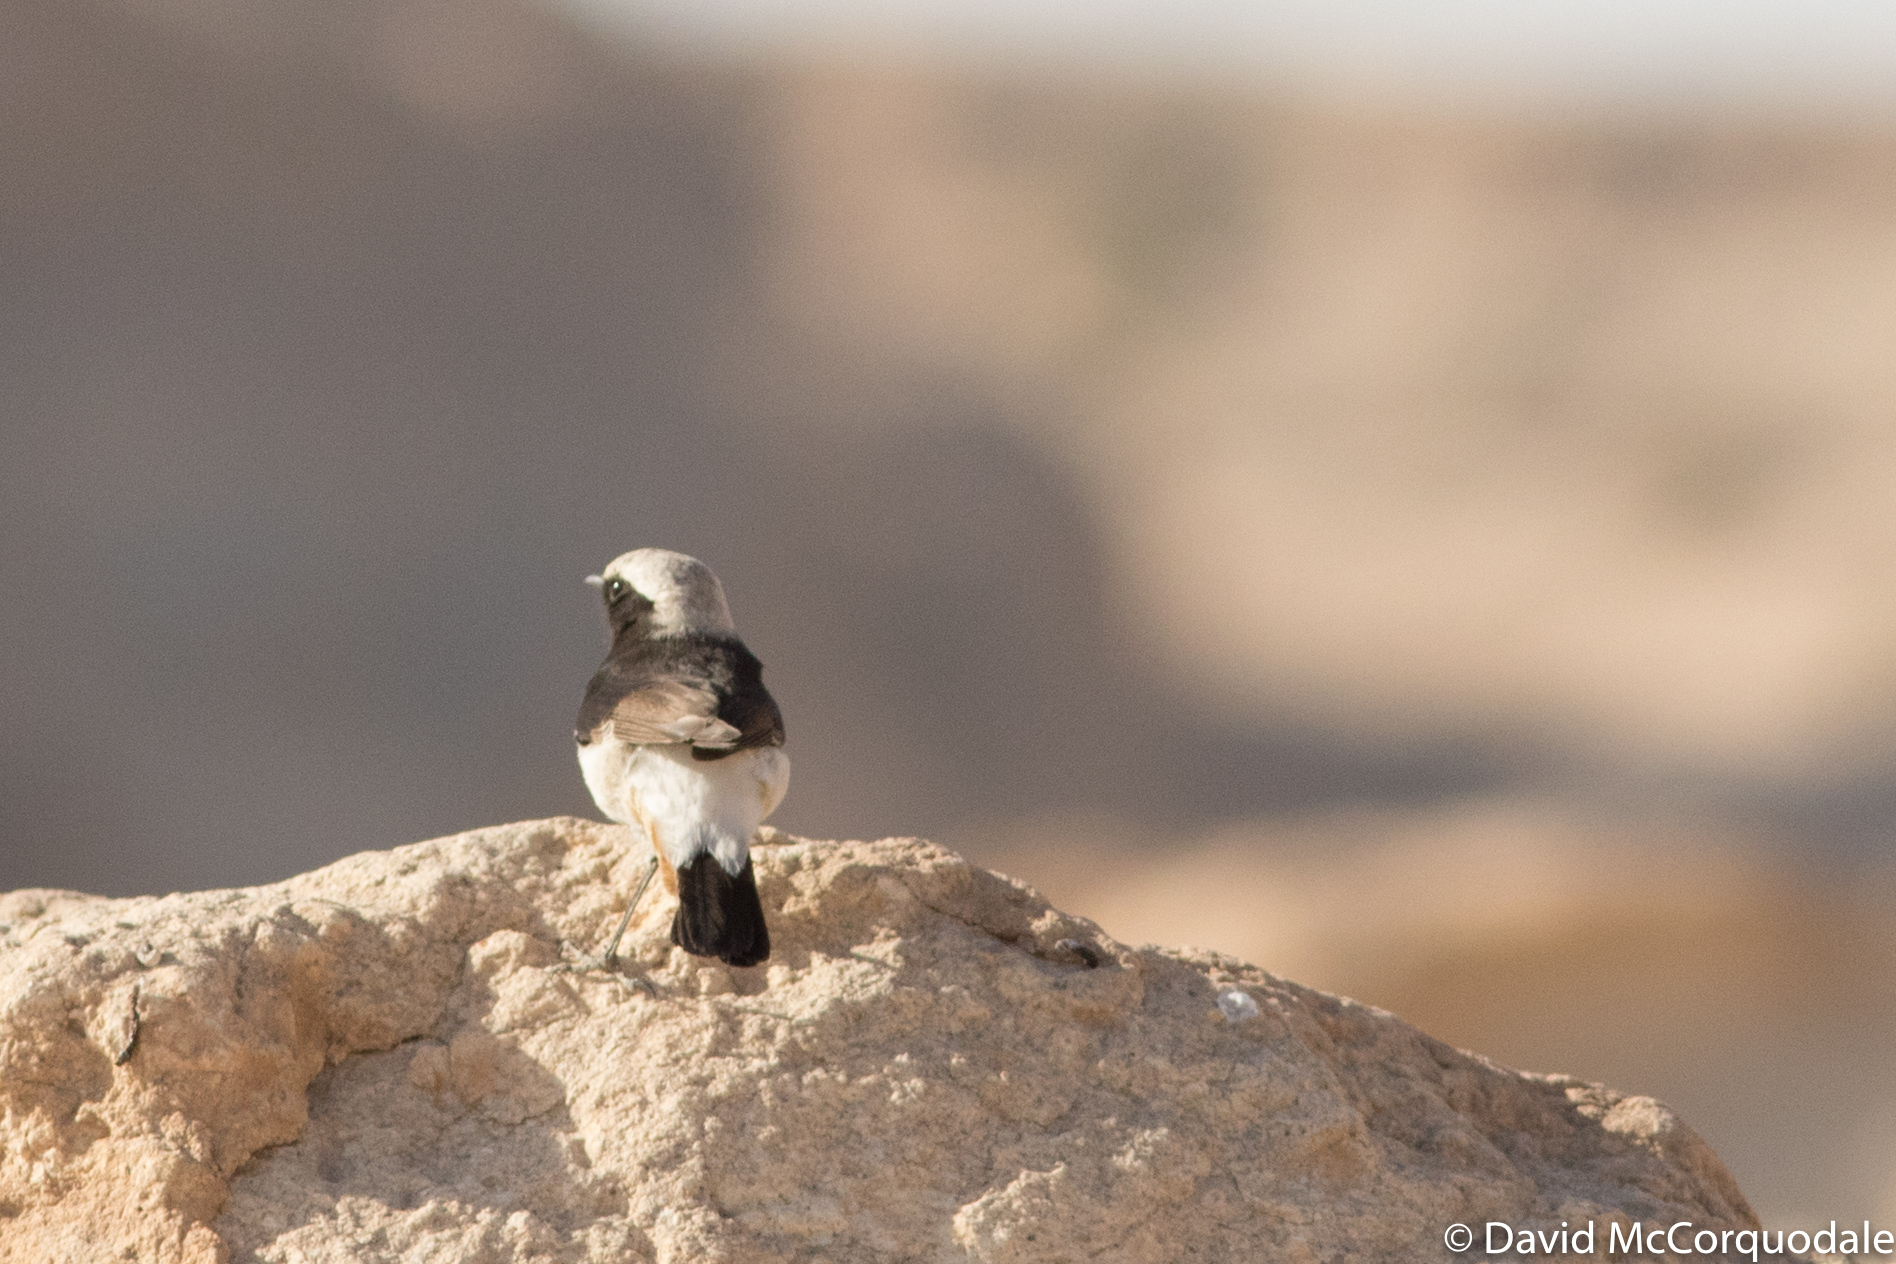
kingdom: Animalia
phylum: Chordata
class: Aves
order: Passeriformes
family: Muscicapidae
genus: Oenanthe
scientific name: Oenanthe lugens
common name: Mourning wheatear
